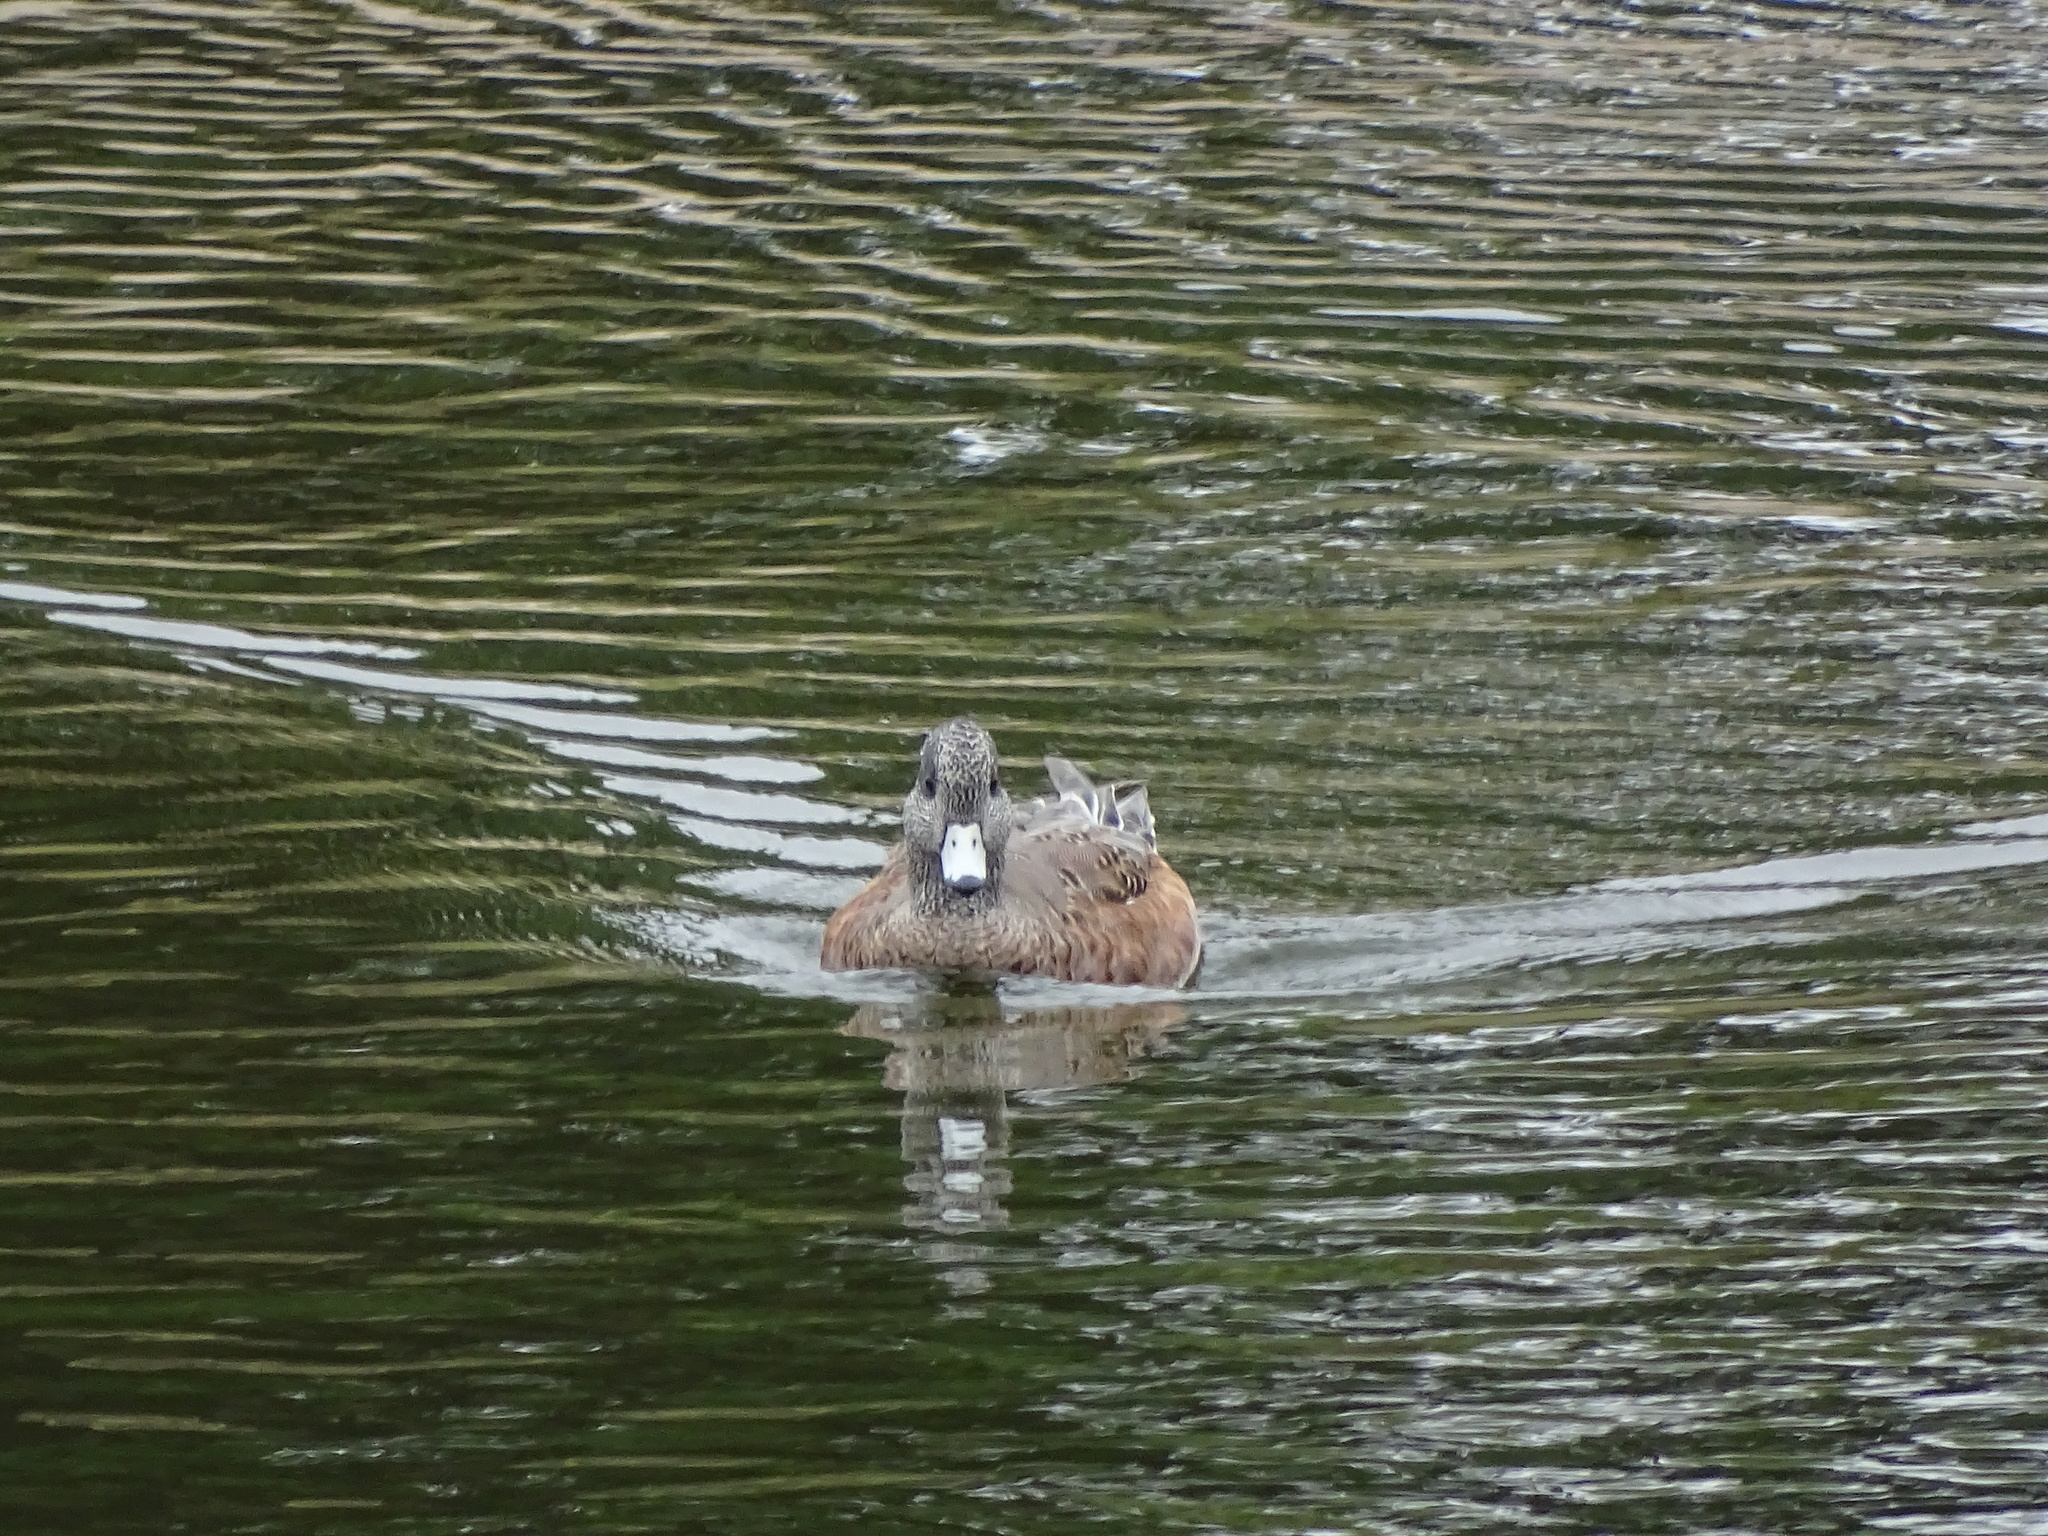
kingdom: Animalia
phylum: Chordata
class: Aves
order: Anseriformes
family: Anatidae
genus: Mareca
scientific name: Mareca americana
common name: American wigeon
